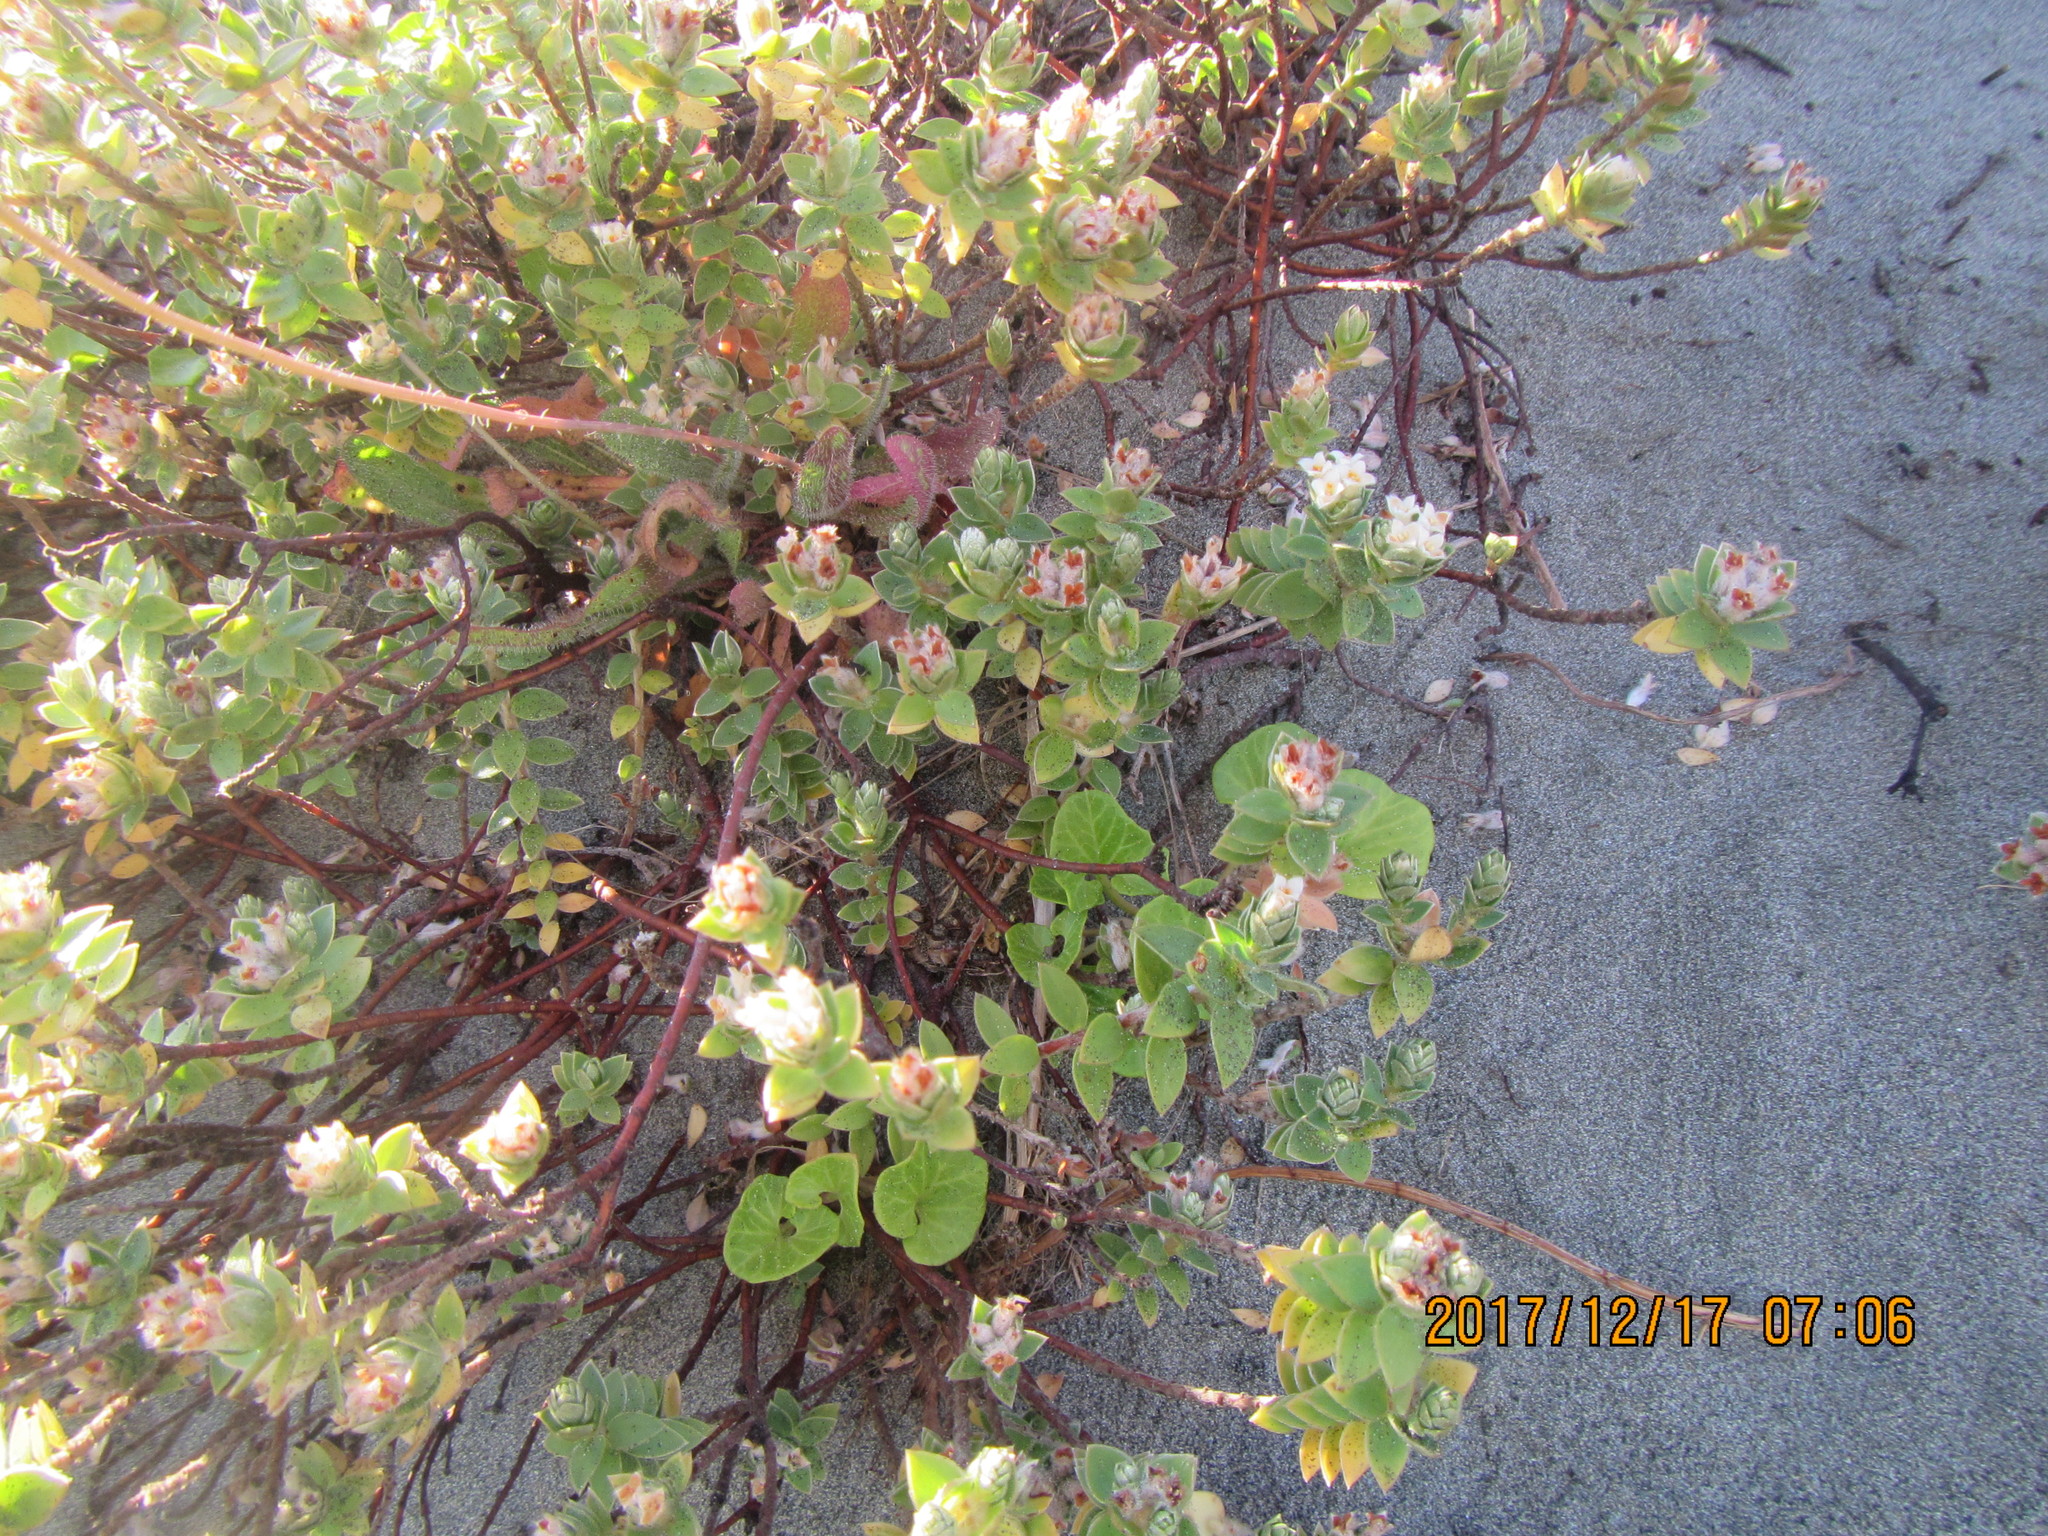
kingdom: Plantae
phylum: Tracheophyta
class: Magnoliopsida
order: Malvales
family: Thymelaeaceae
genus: Pimelea
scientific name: Pimelea villosa
